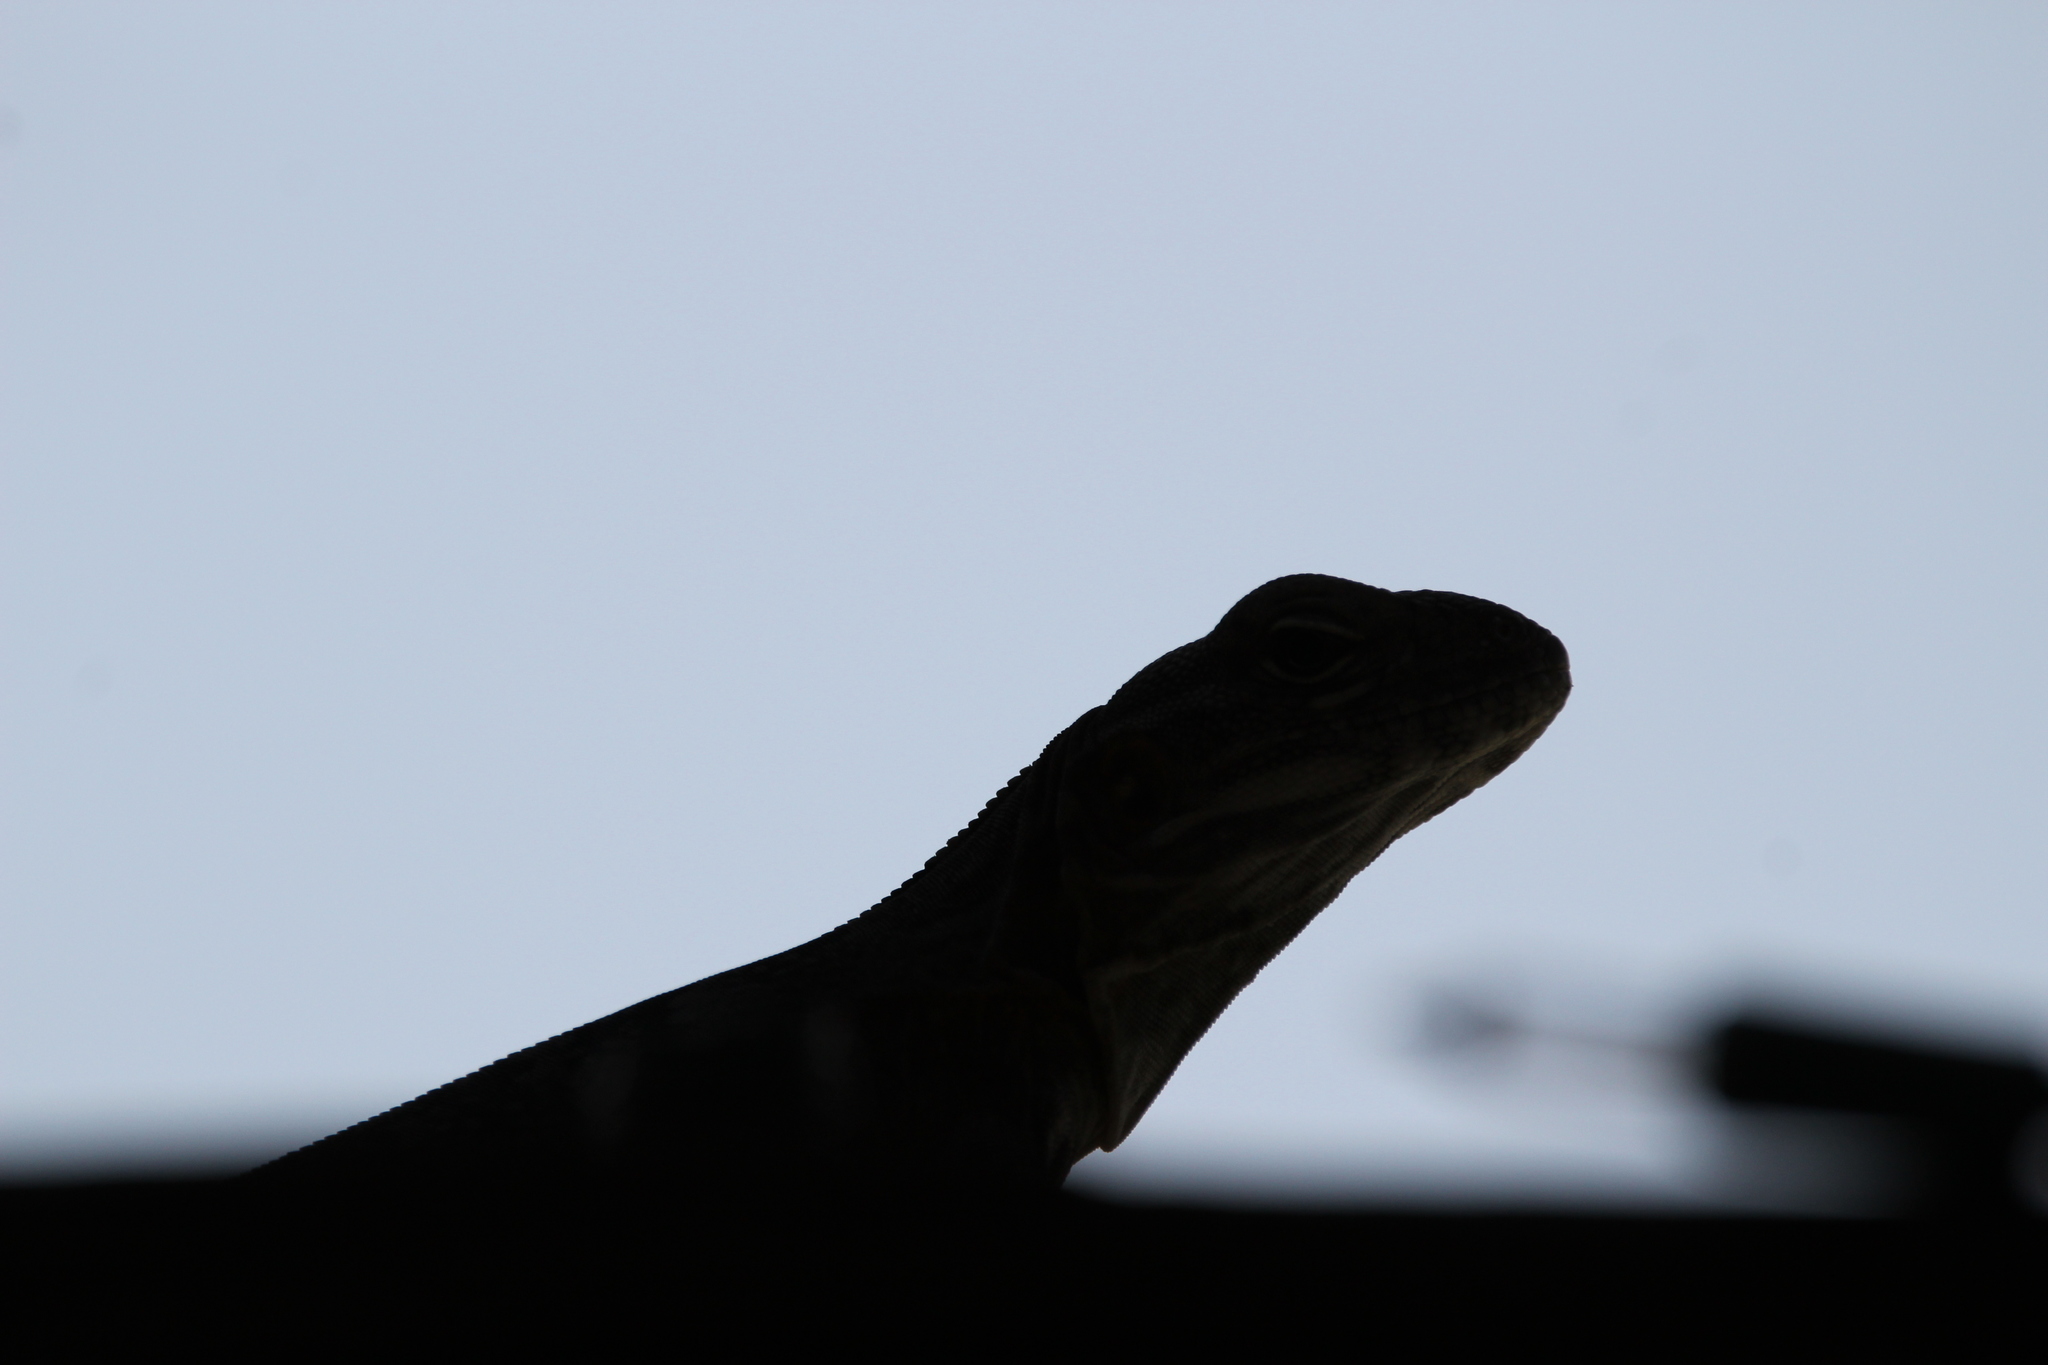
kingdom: Animalia
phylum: Chordata
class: Squamata
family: Iguanidae
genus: Ctenosaura
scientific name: Ctenosaura
